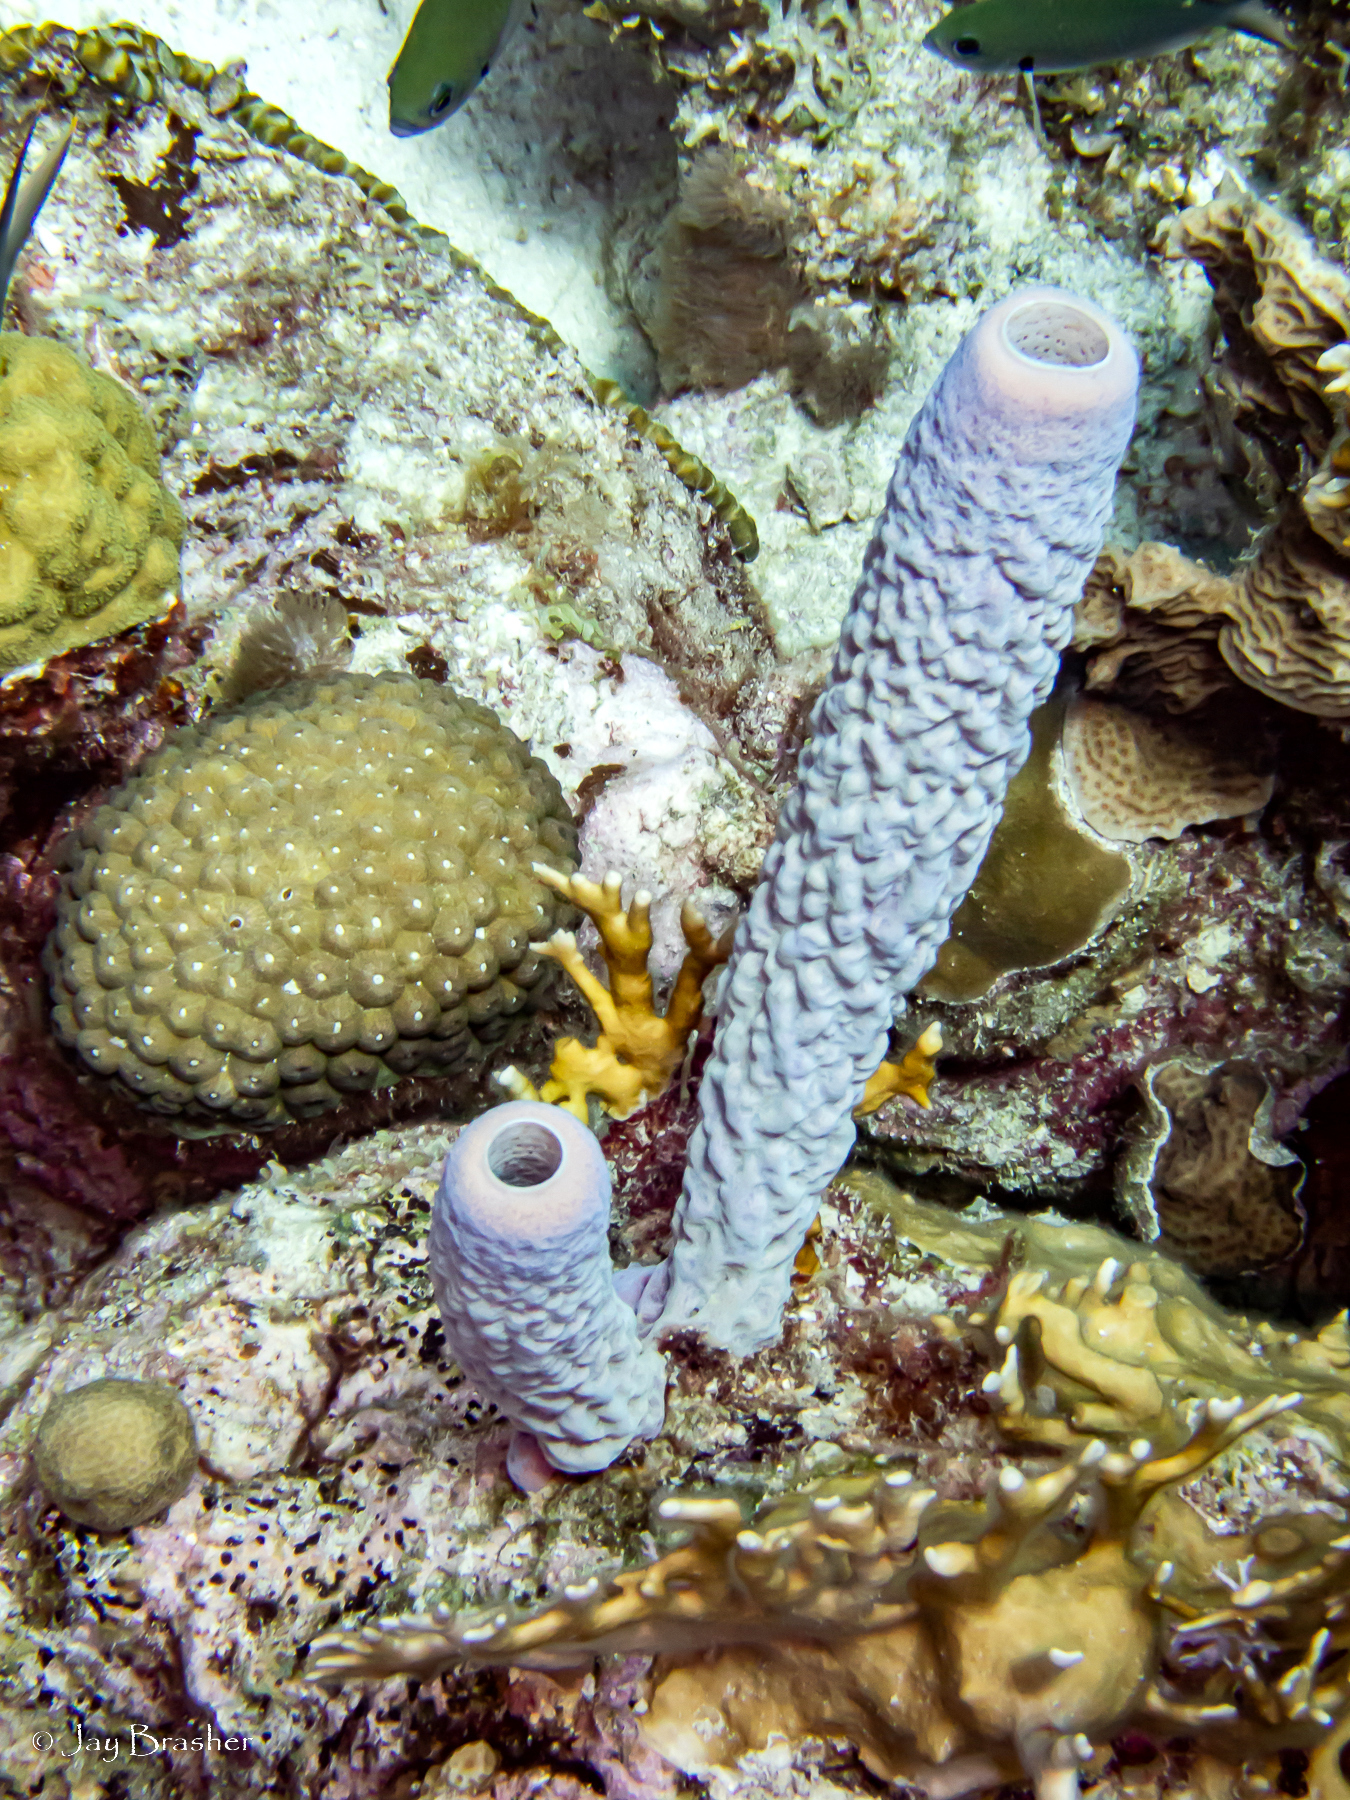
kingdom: Animalia
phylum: Porifera
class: Demospongiae
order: Verongiida
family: Aplysinidae
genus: Aplysina
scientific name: Aplysina archeri
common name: Stove-pipe sponge
